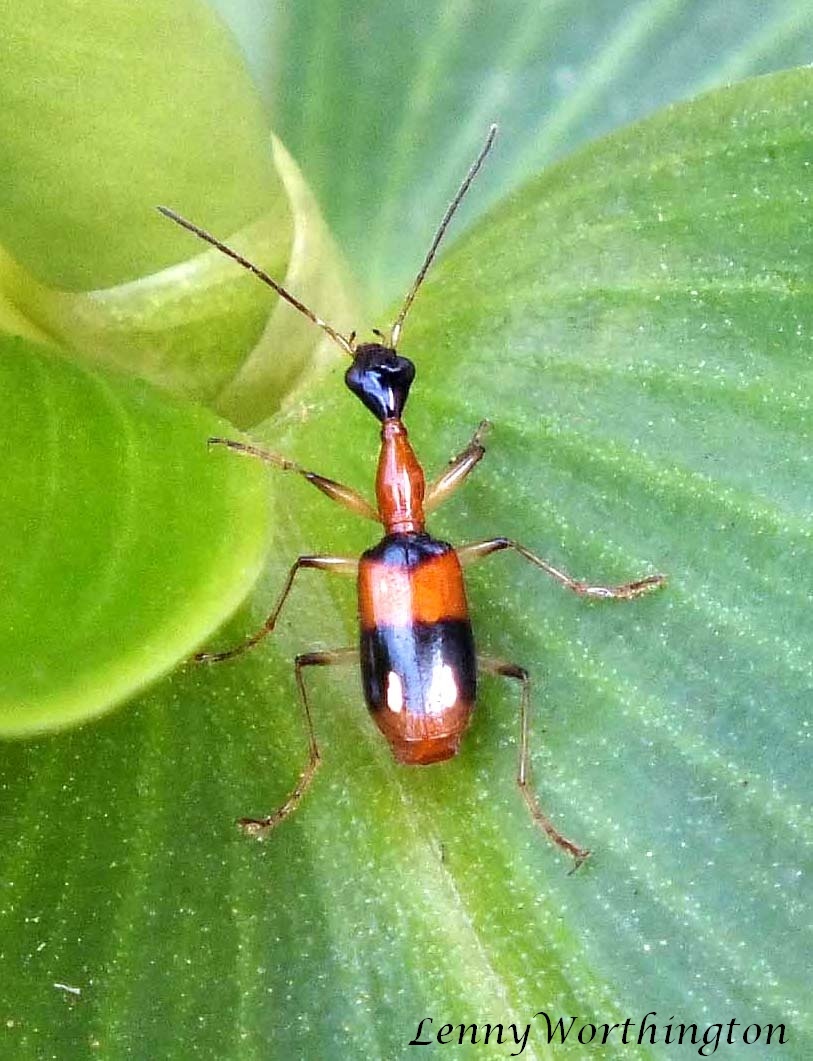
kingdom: Animalia
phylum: Arthropoda
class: Insecta
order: Coleoptera
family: Carabidae
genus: Ophionea
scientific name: Ophionea ishiii
